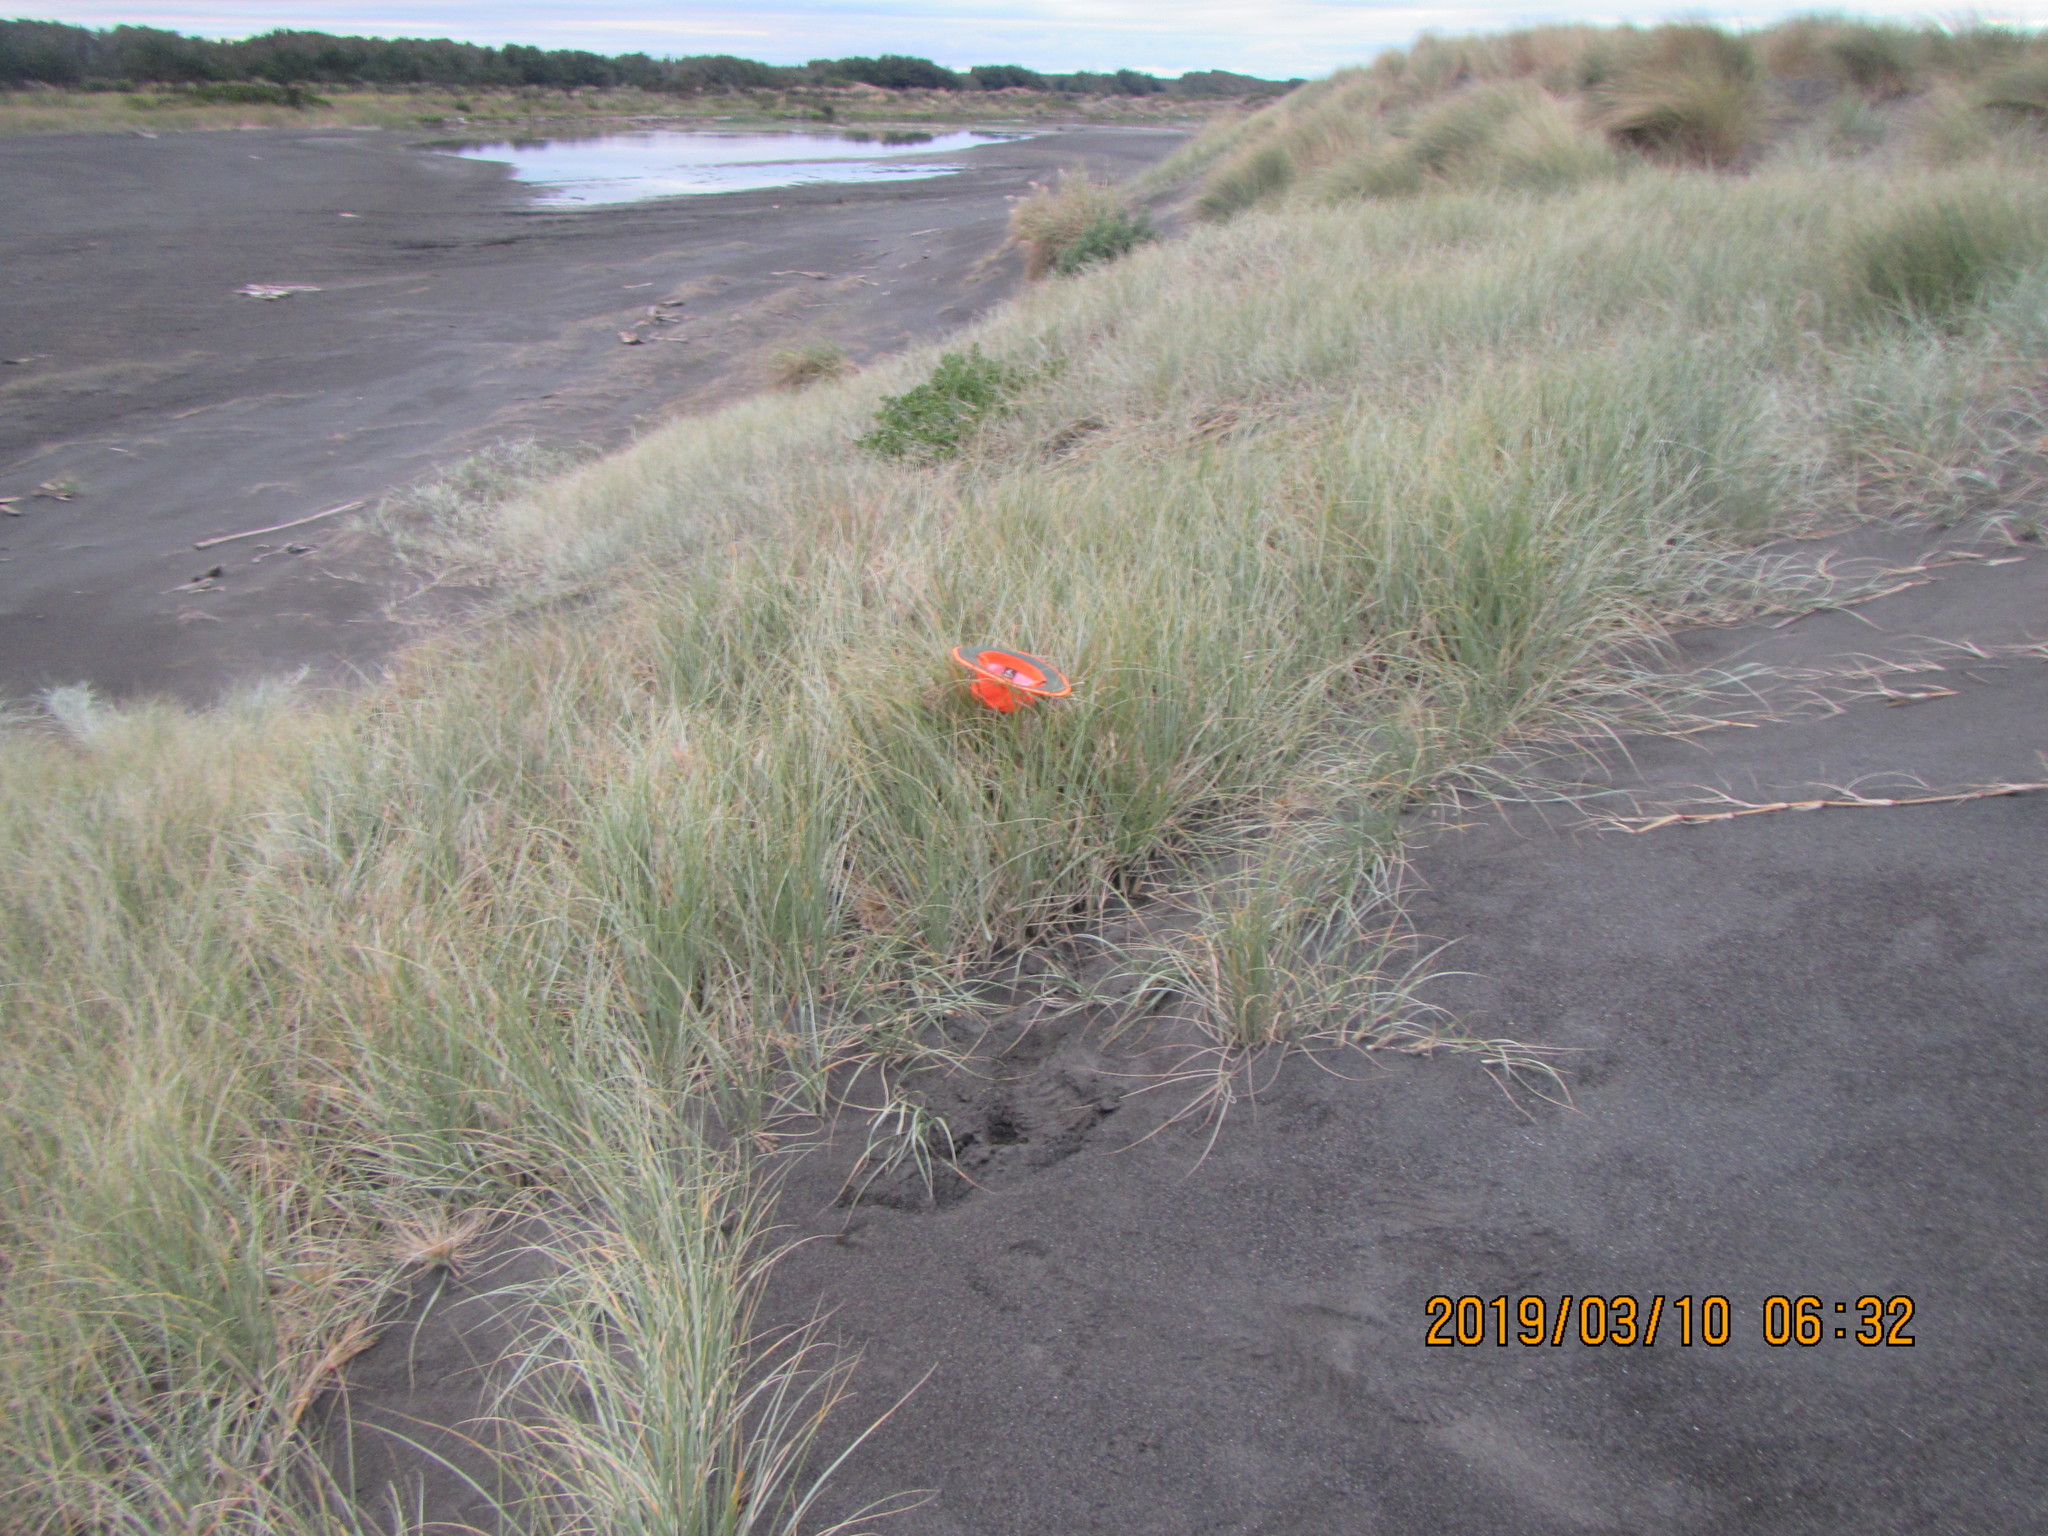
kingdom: Plantae
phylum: Tracheophyta
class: Liliopsida
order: Poales
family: Poaceae
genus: Spinifex
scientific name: Spinifex sericeus
